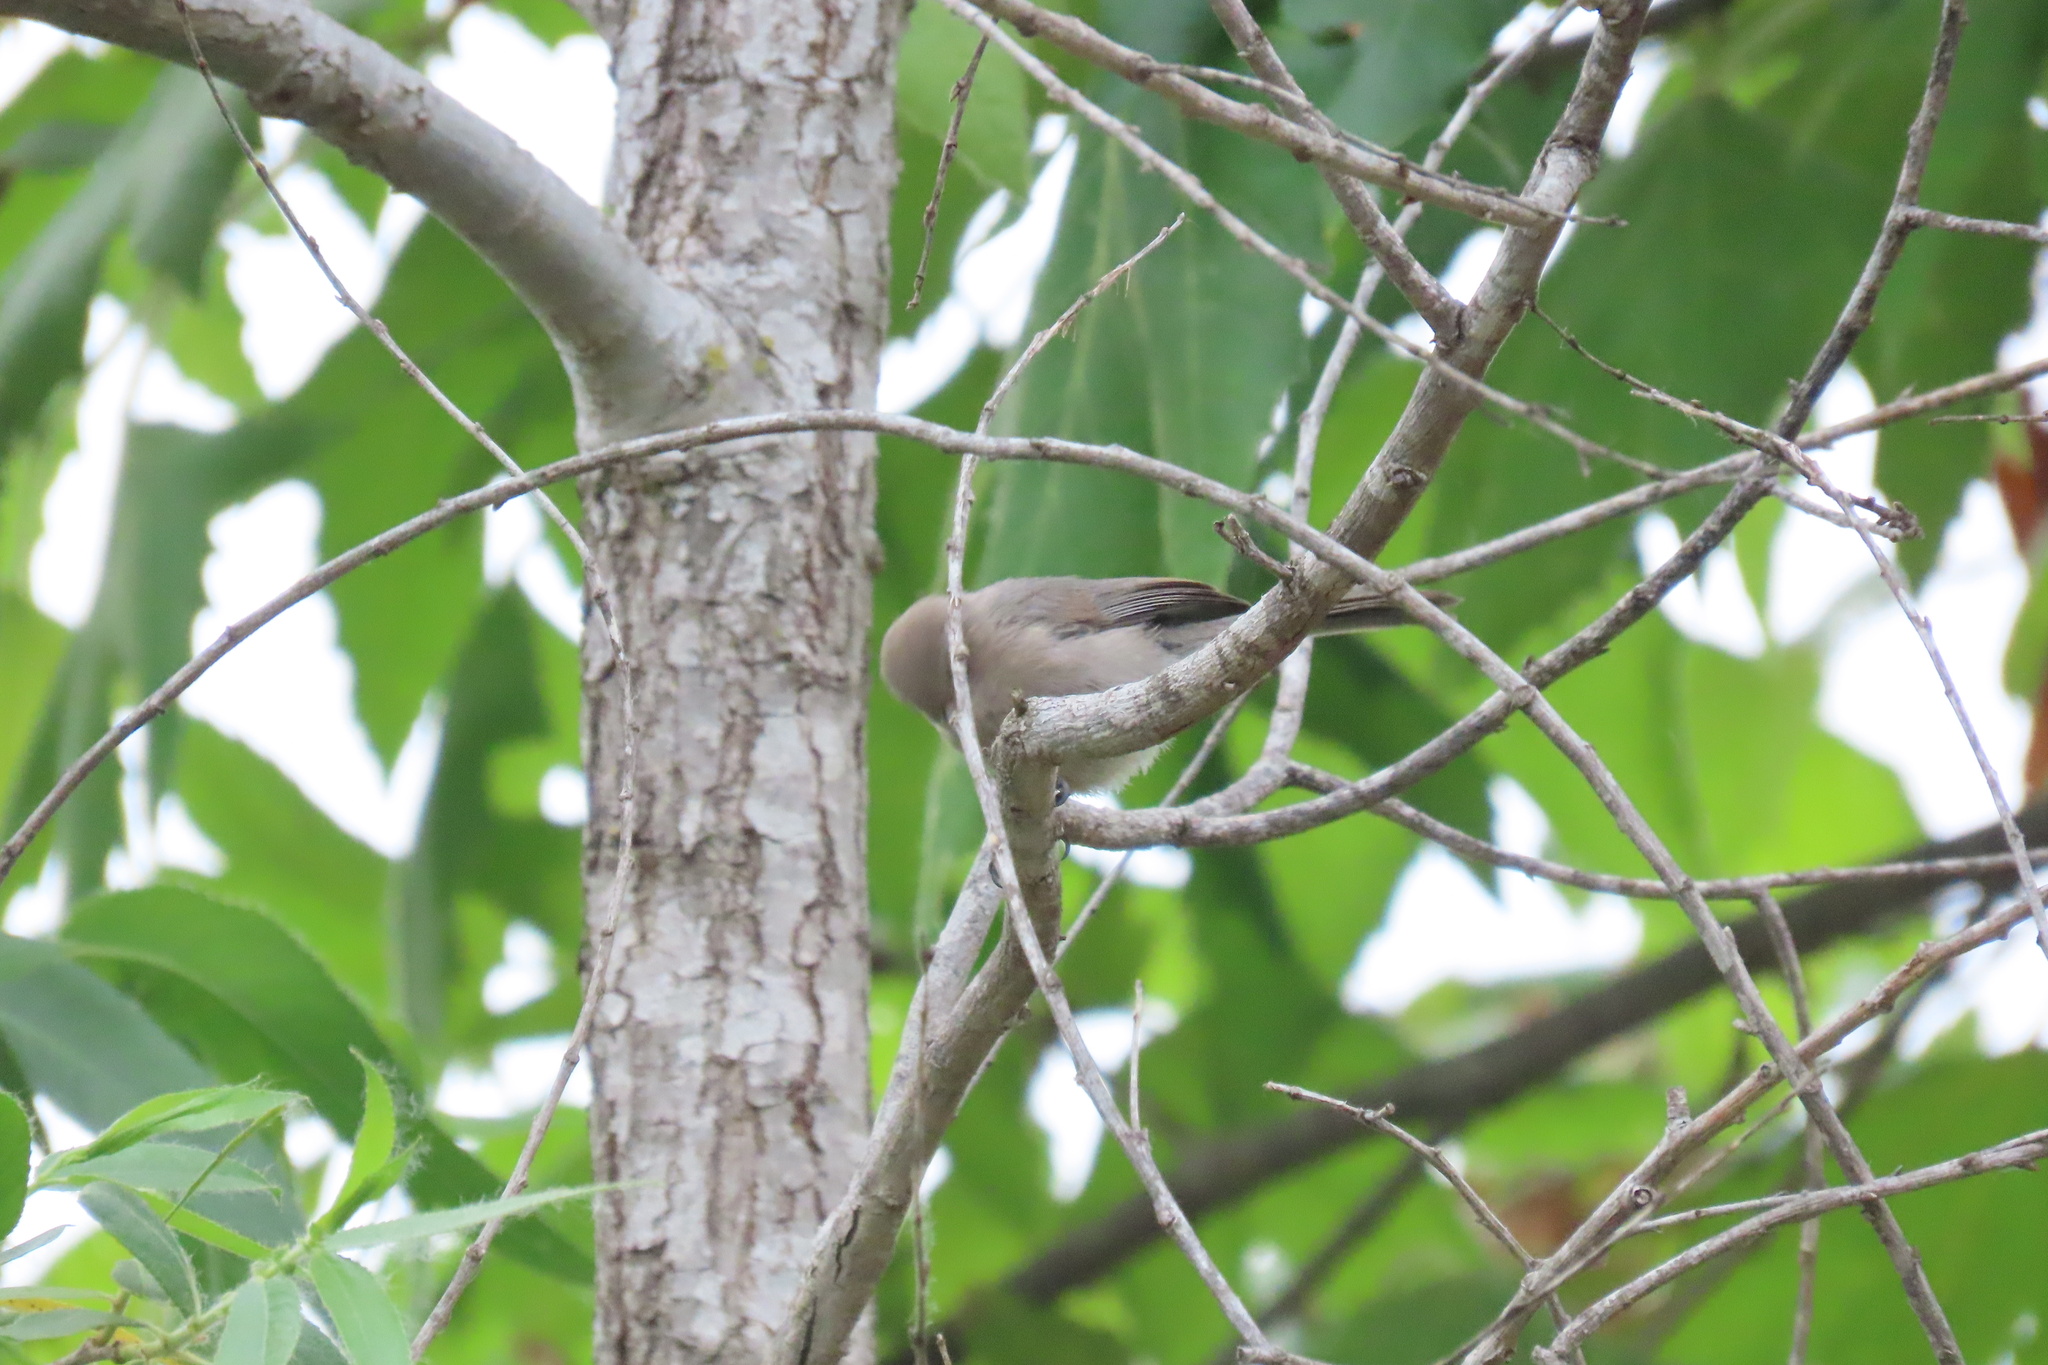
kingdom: Animalia
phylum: Chordata
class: Aves
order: Passeriformes
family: Aegithalidae
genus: Psaltriparus
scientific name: Psaltriparus minimus
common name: American bushtit
